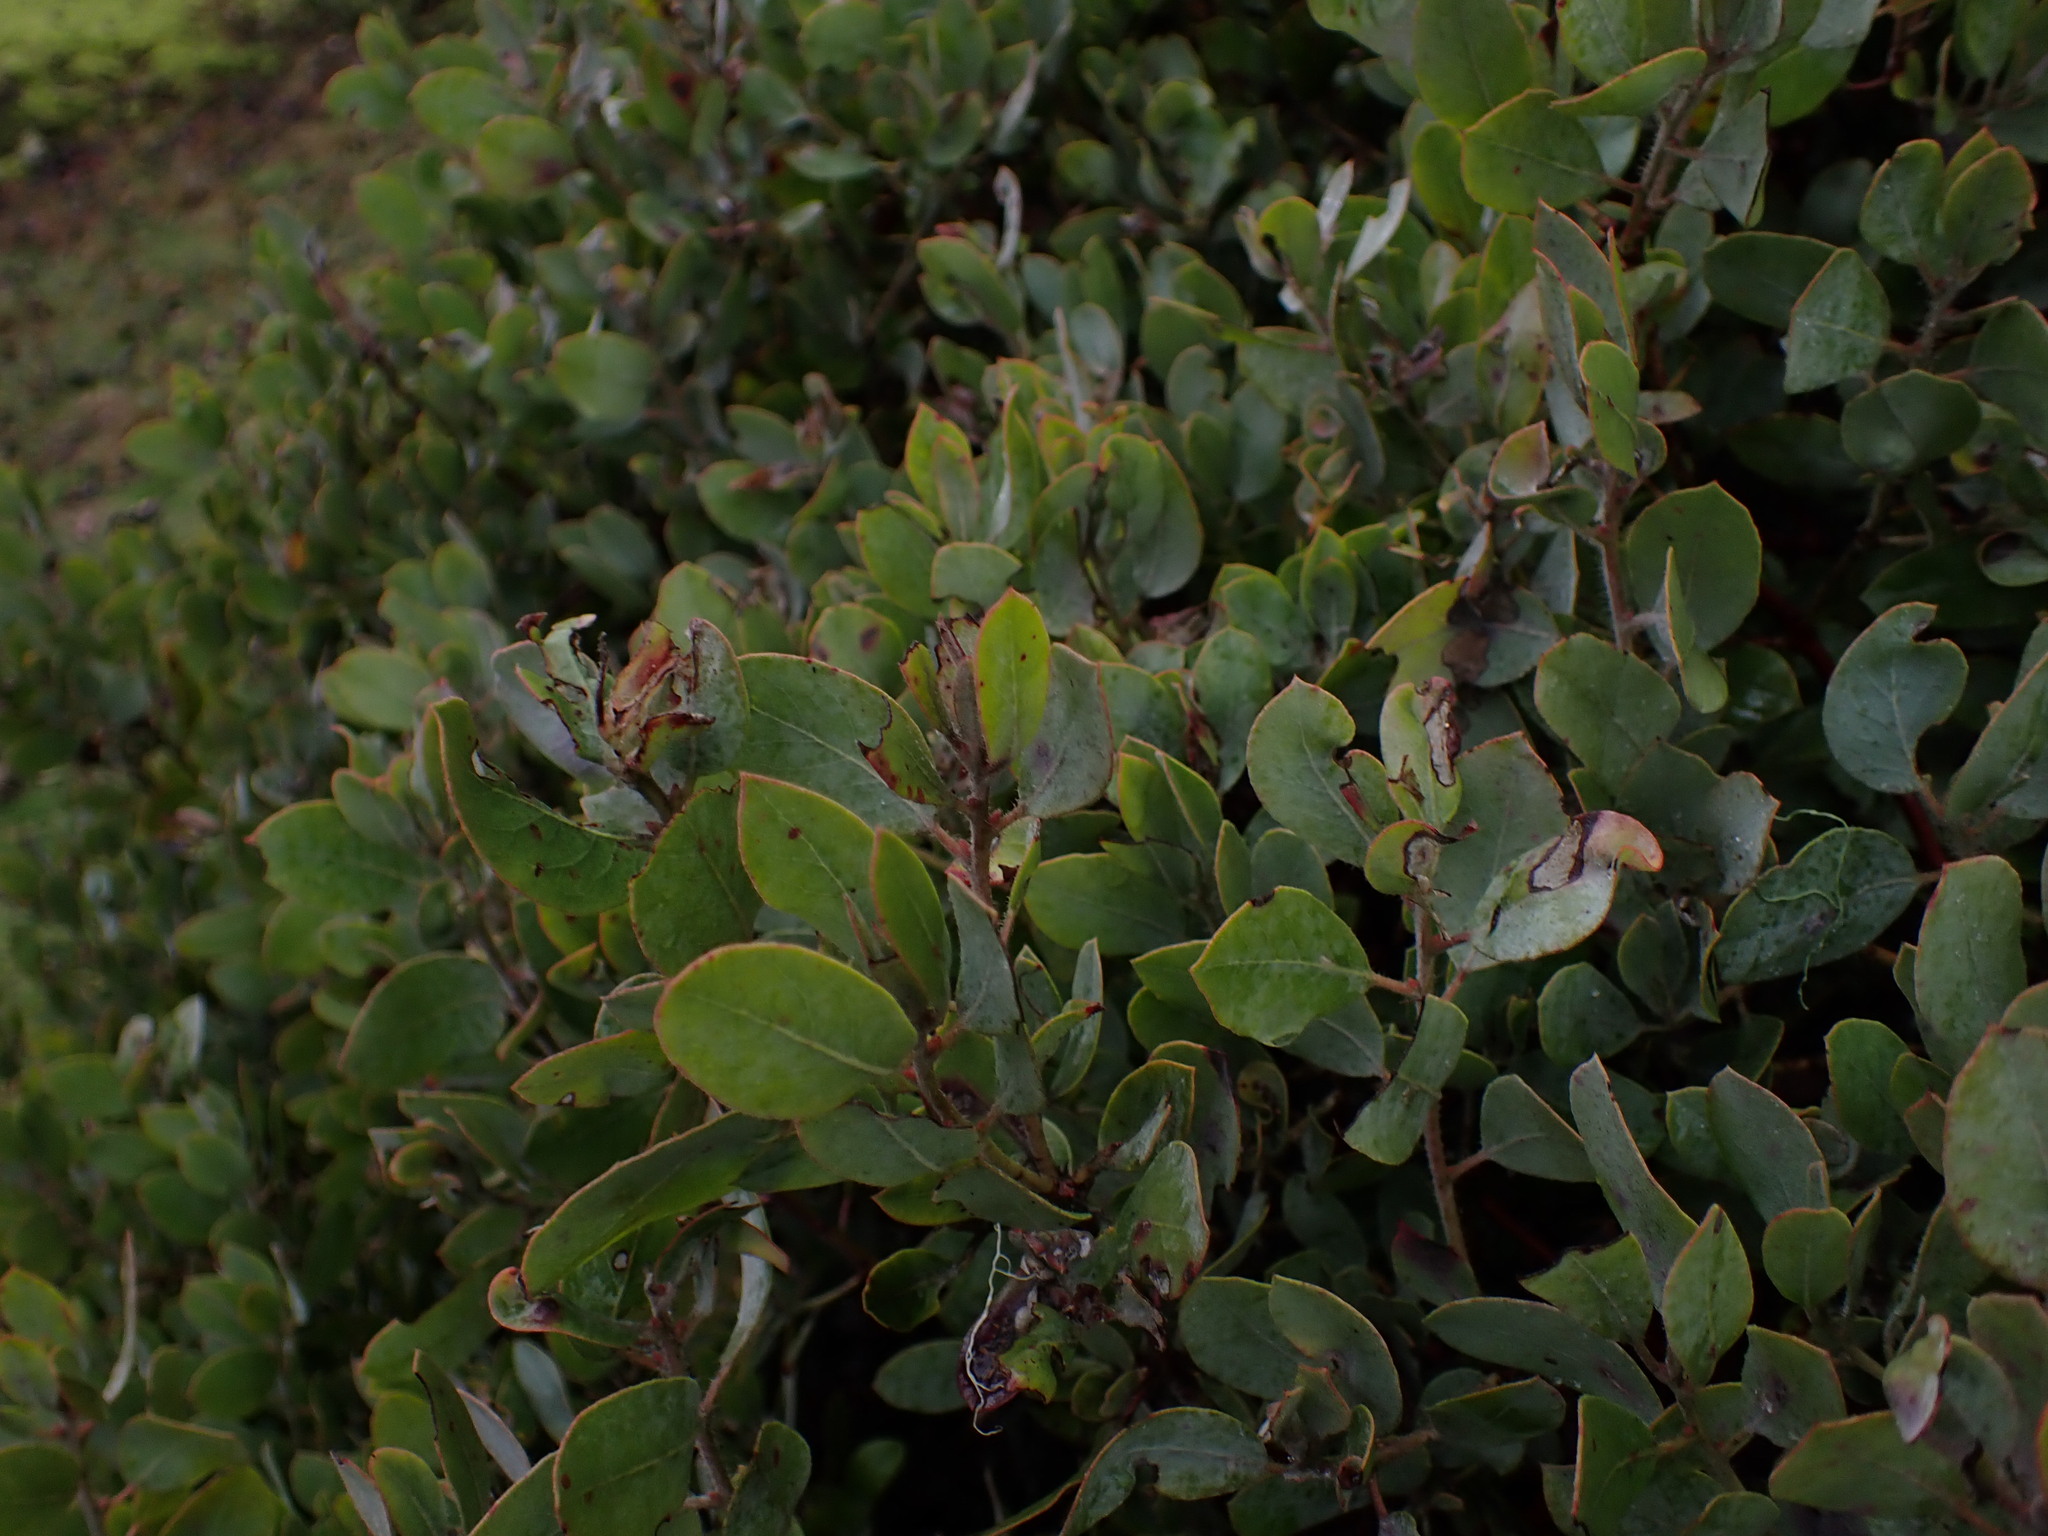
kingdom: Plantae
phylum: Tracheophyta
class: Magnoliopsida
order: Ericales
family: Ericaceae
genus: Arctostaphylos
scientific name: Arctostaphylos columbiana
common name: Bristly bearberry
